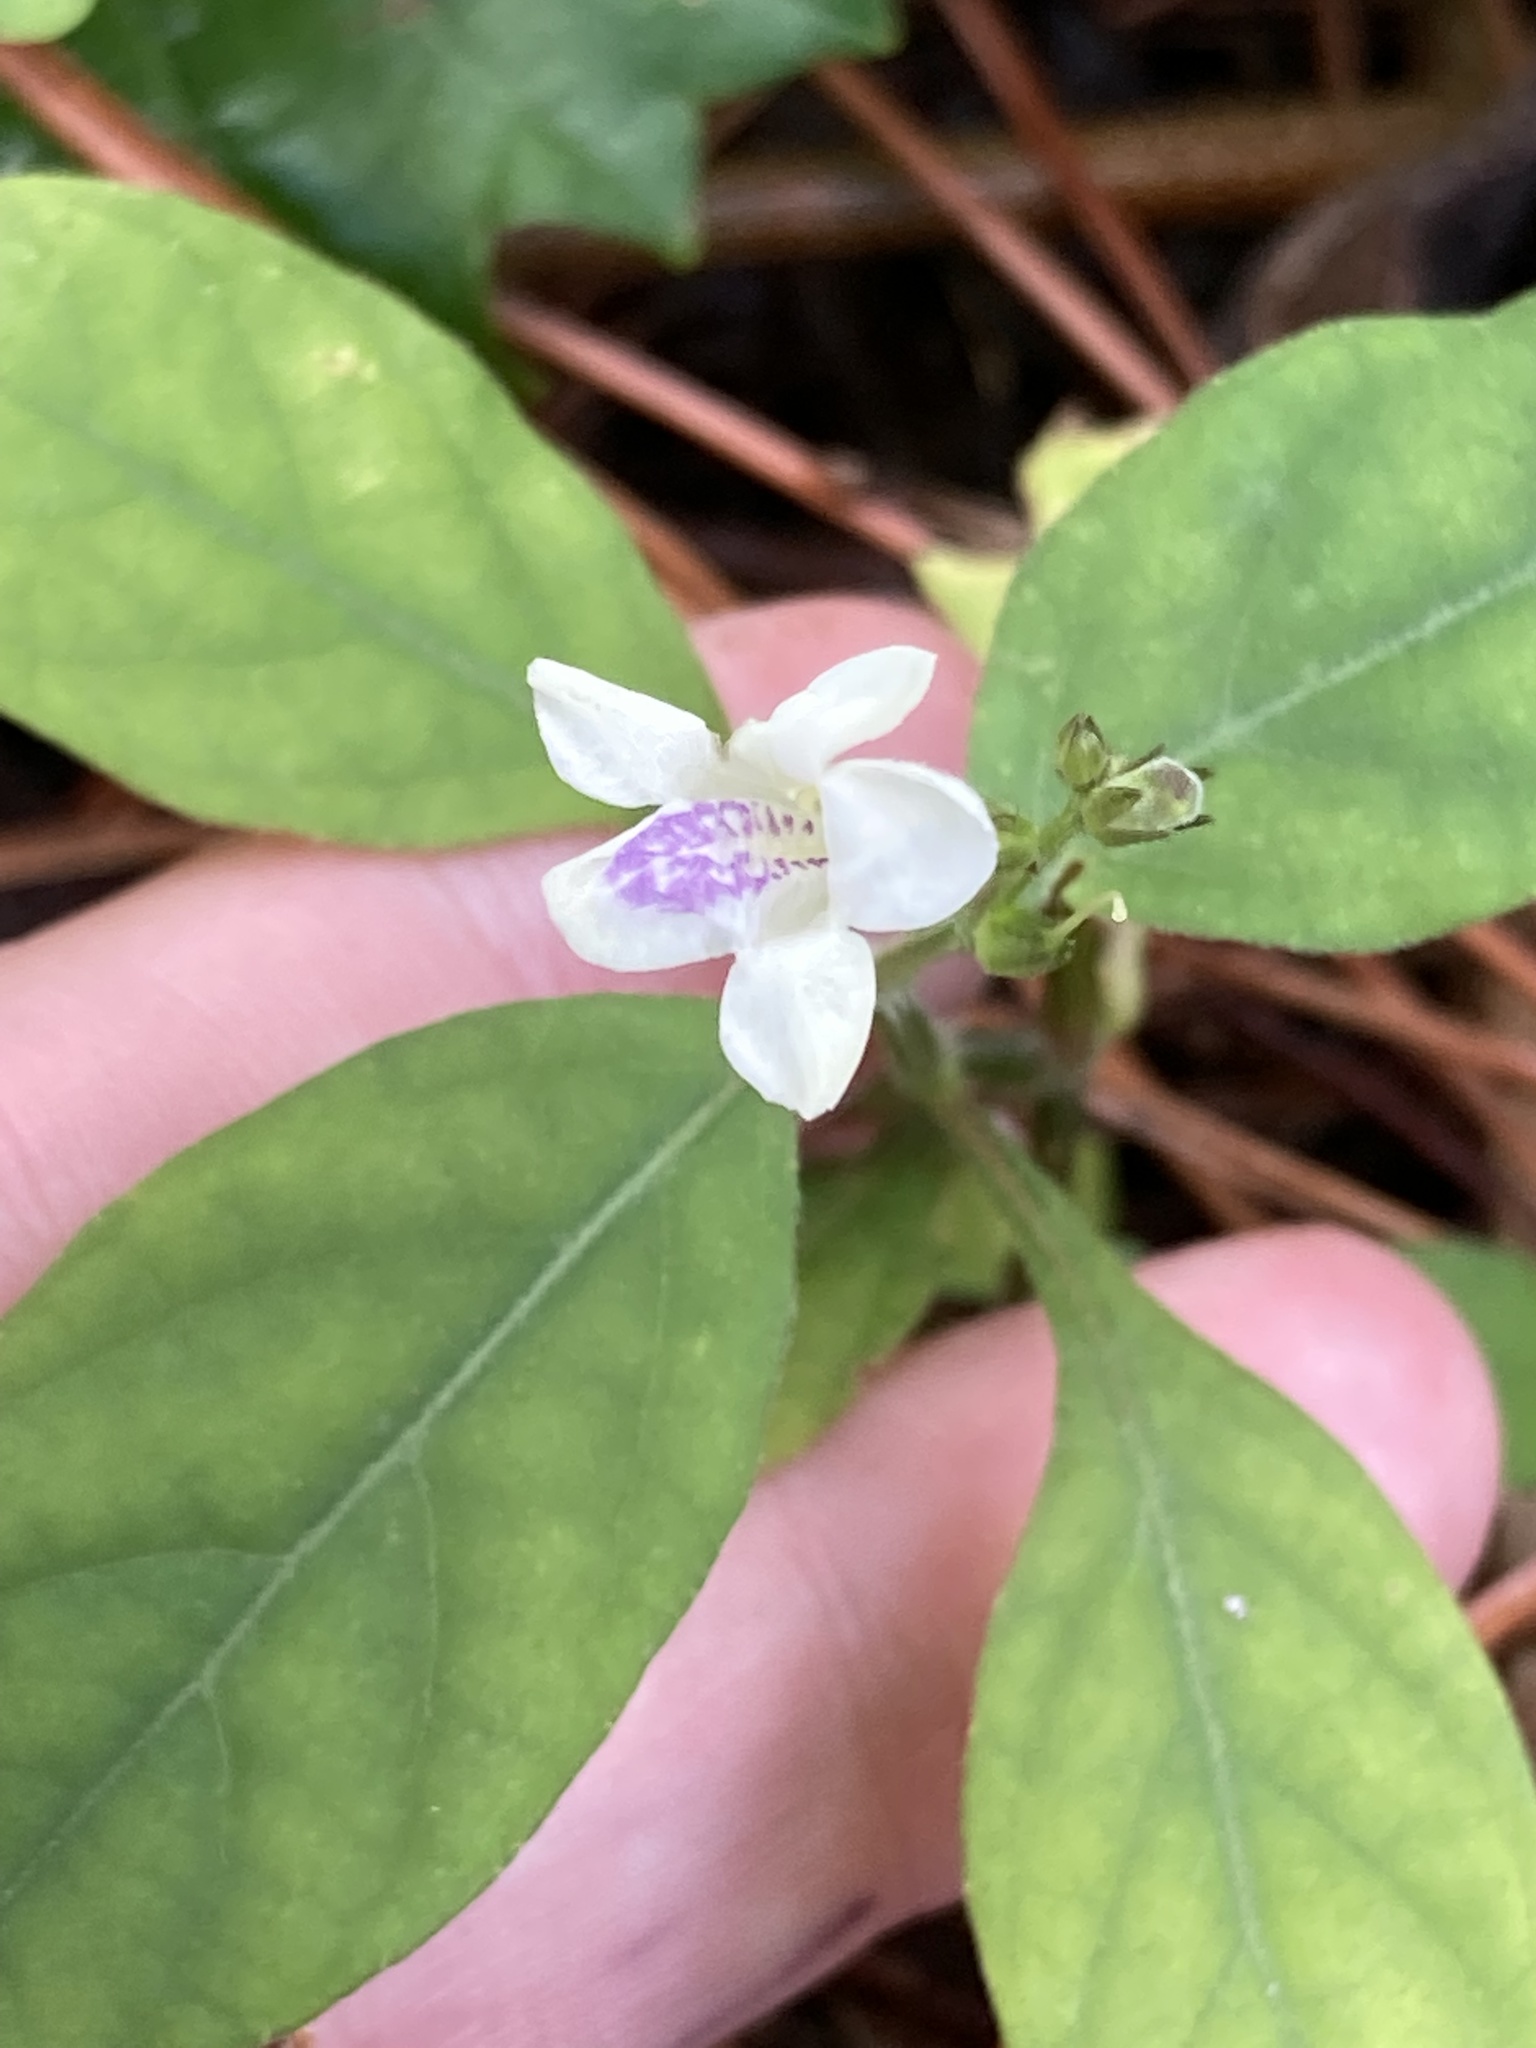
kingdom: Plantae
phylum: Tracheophyta
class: Magnoliopsida
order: Lamiales
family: Acanthaceae
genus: Asystasia
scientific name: Asystasia intrusa
